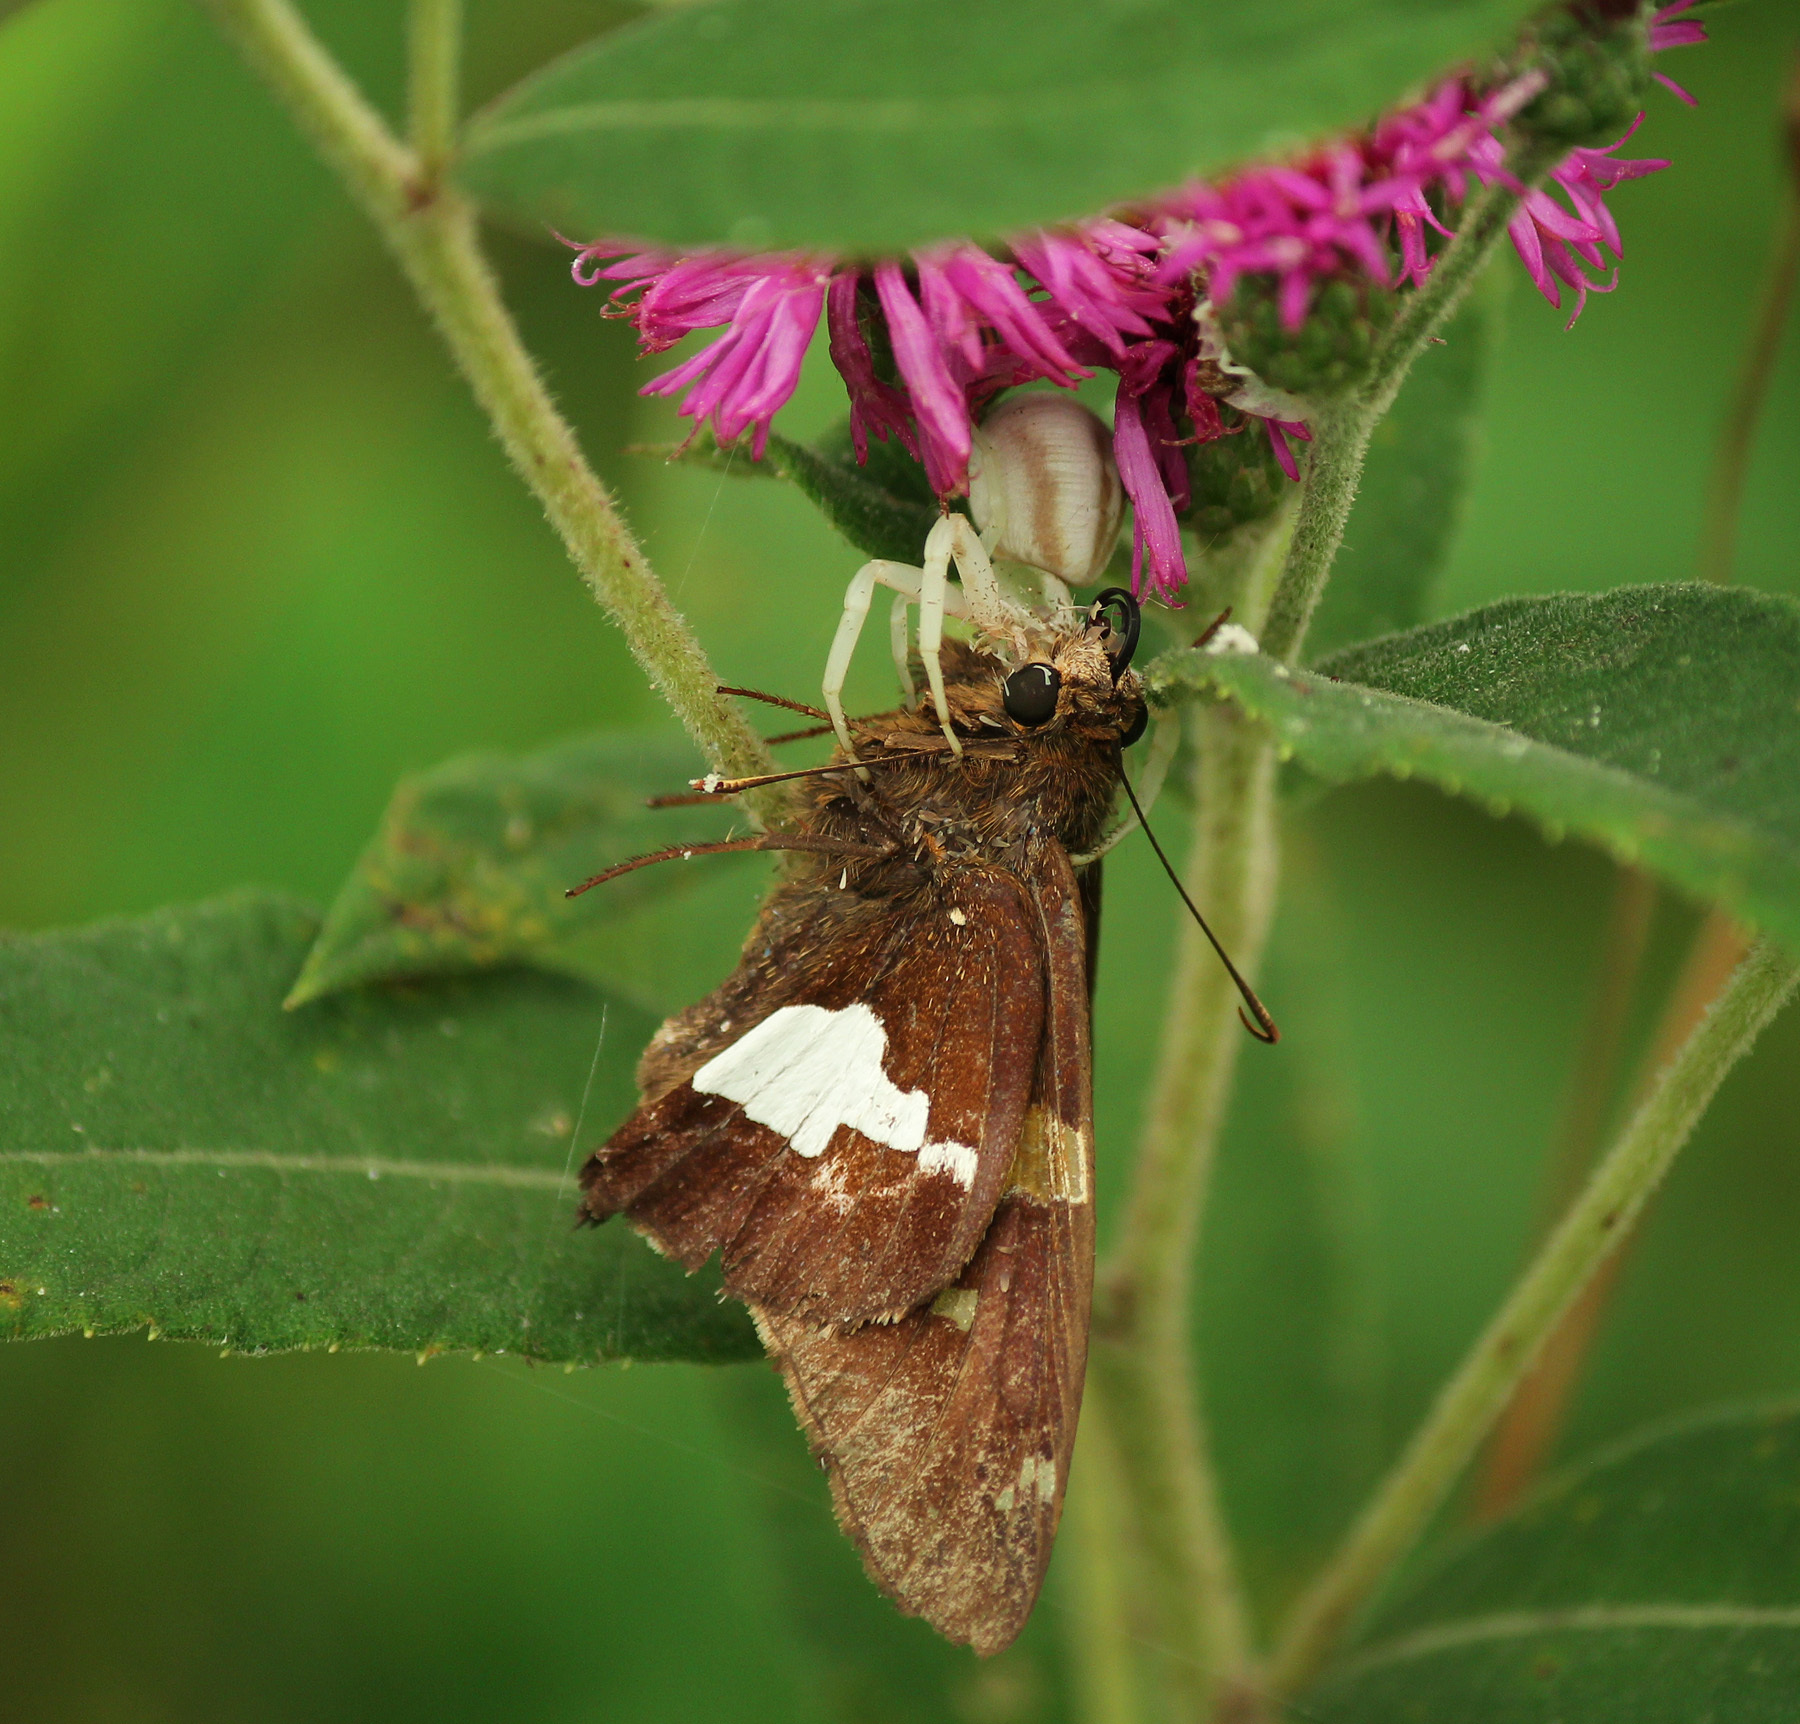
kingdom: Animalia
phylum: Arthropoda
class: Insecta
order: Lepidoptera
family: Hesperiidae
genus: Epargyreus
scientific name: Epargyreus clarus
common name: Silver-spotted skipper
